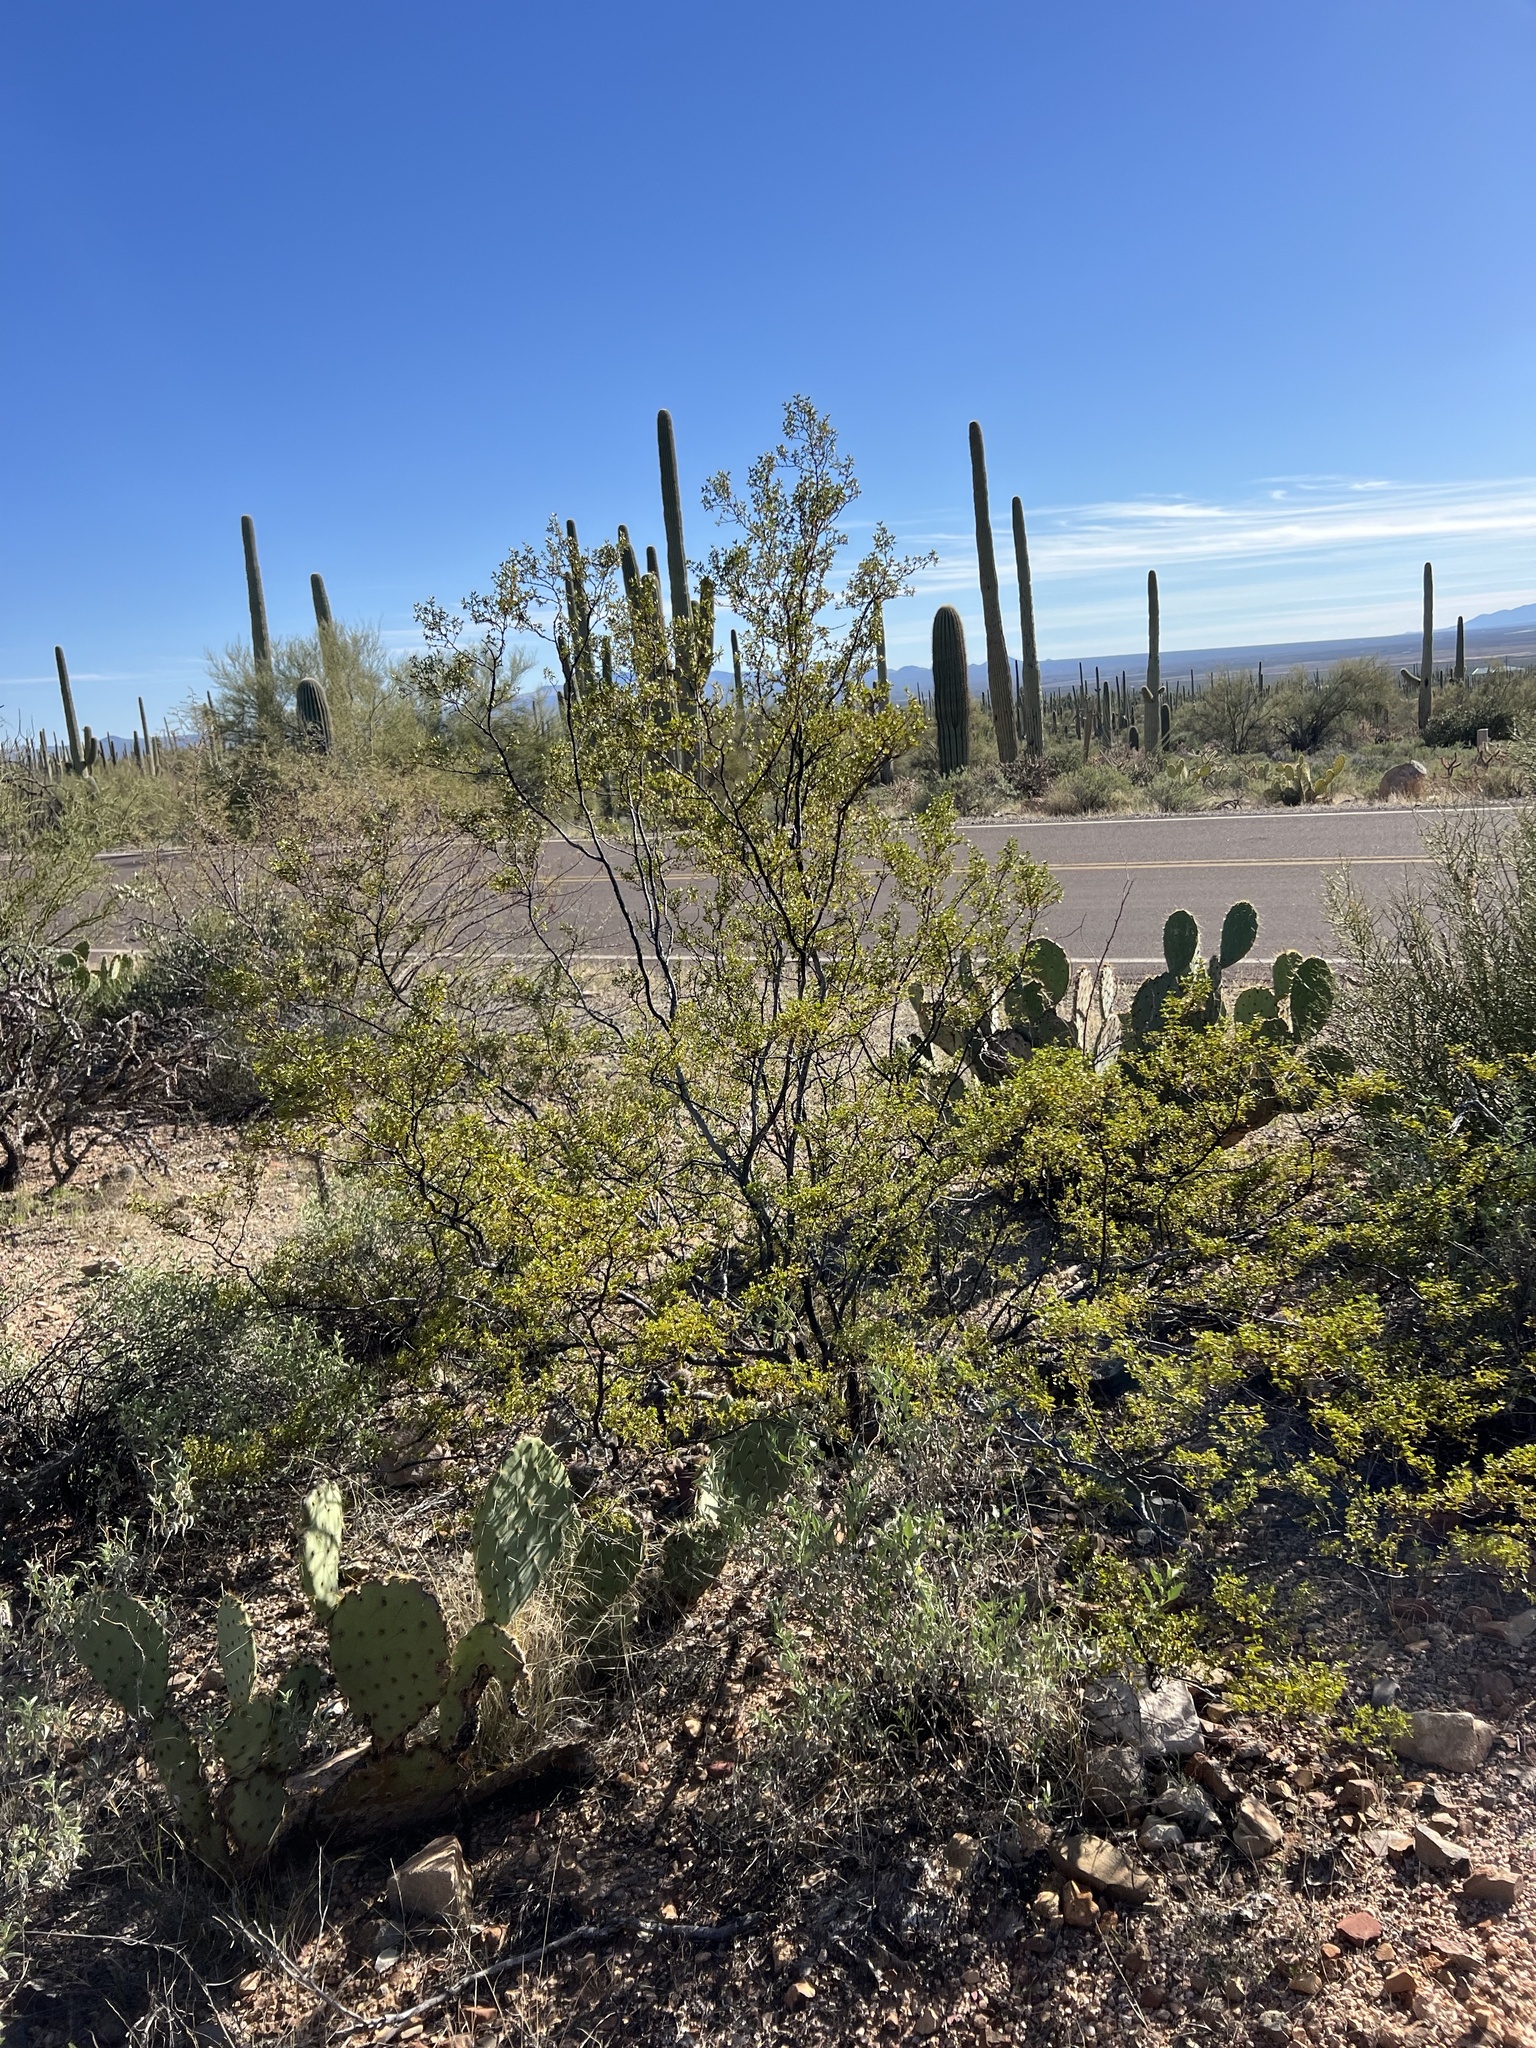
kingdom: Plantae
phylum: Tracheophyta
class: Magnoliopsida
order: Zygophyllales
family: Zygophyllaceae
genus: Larrea
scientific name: Larrea tridentata
